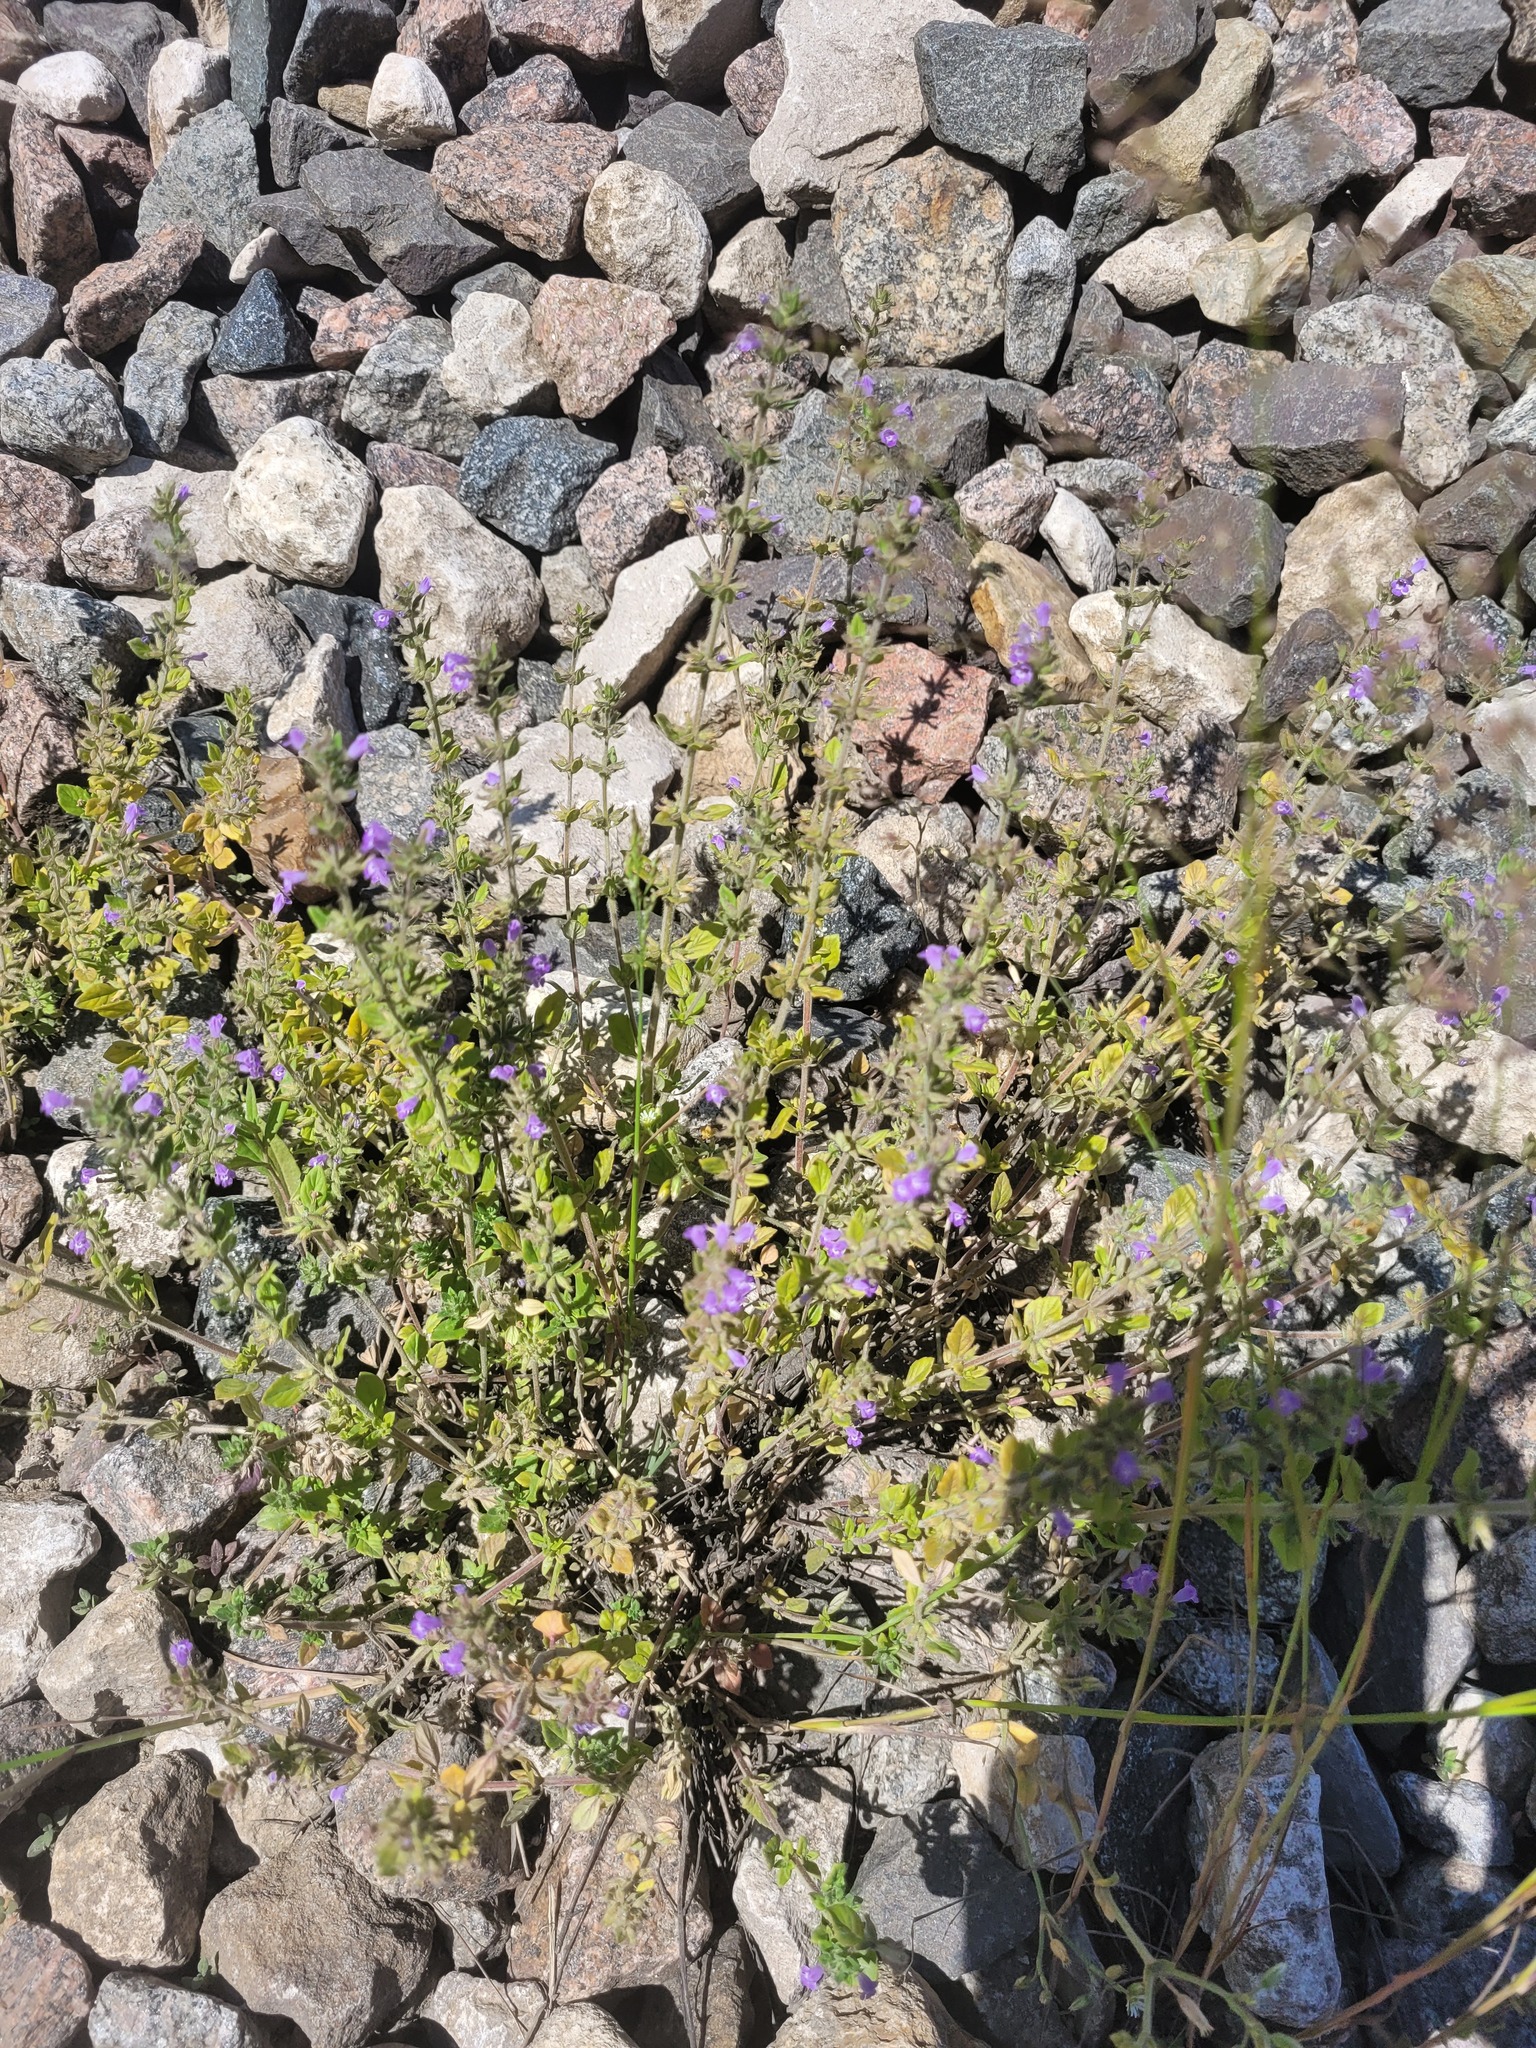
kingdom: Plantae
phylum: Tracheophyta
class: Magnoliopsida
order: Lamiales
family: Lamiaceae
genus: Clinopodium
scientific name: Clinopodium acinos
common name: Basil thyme
